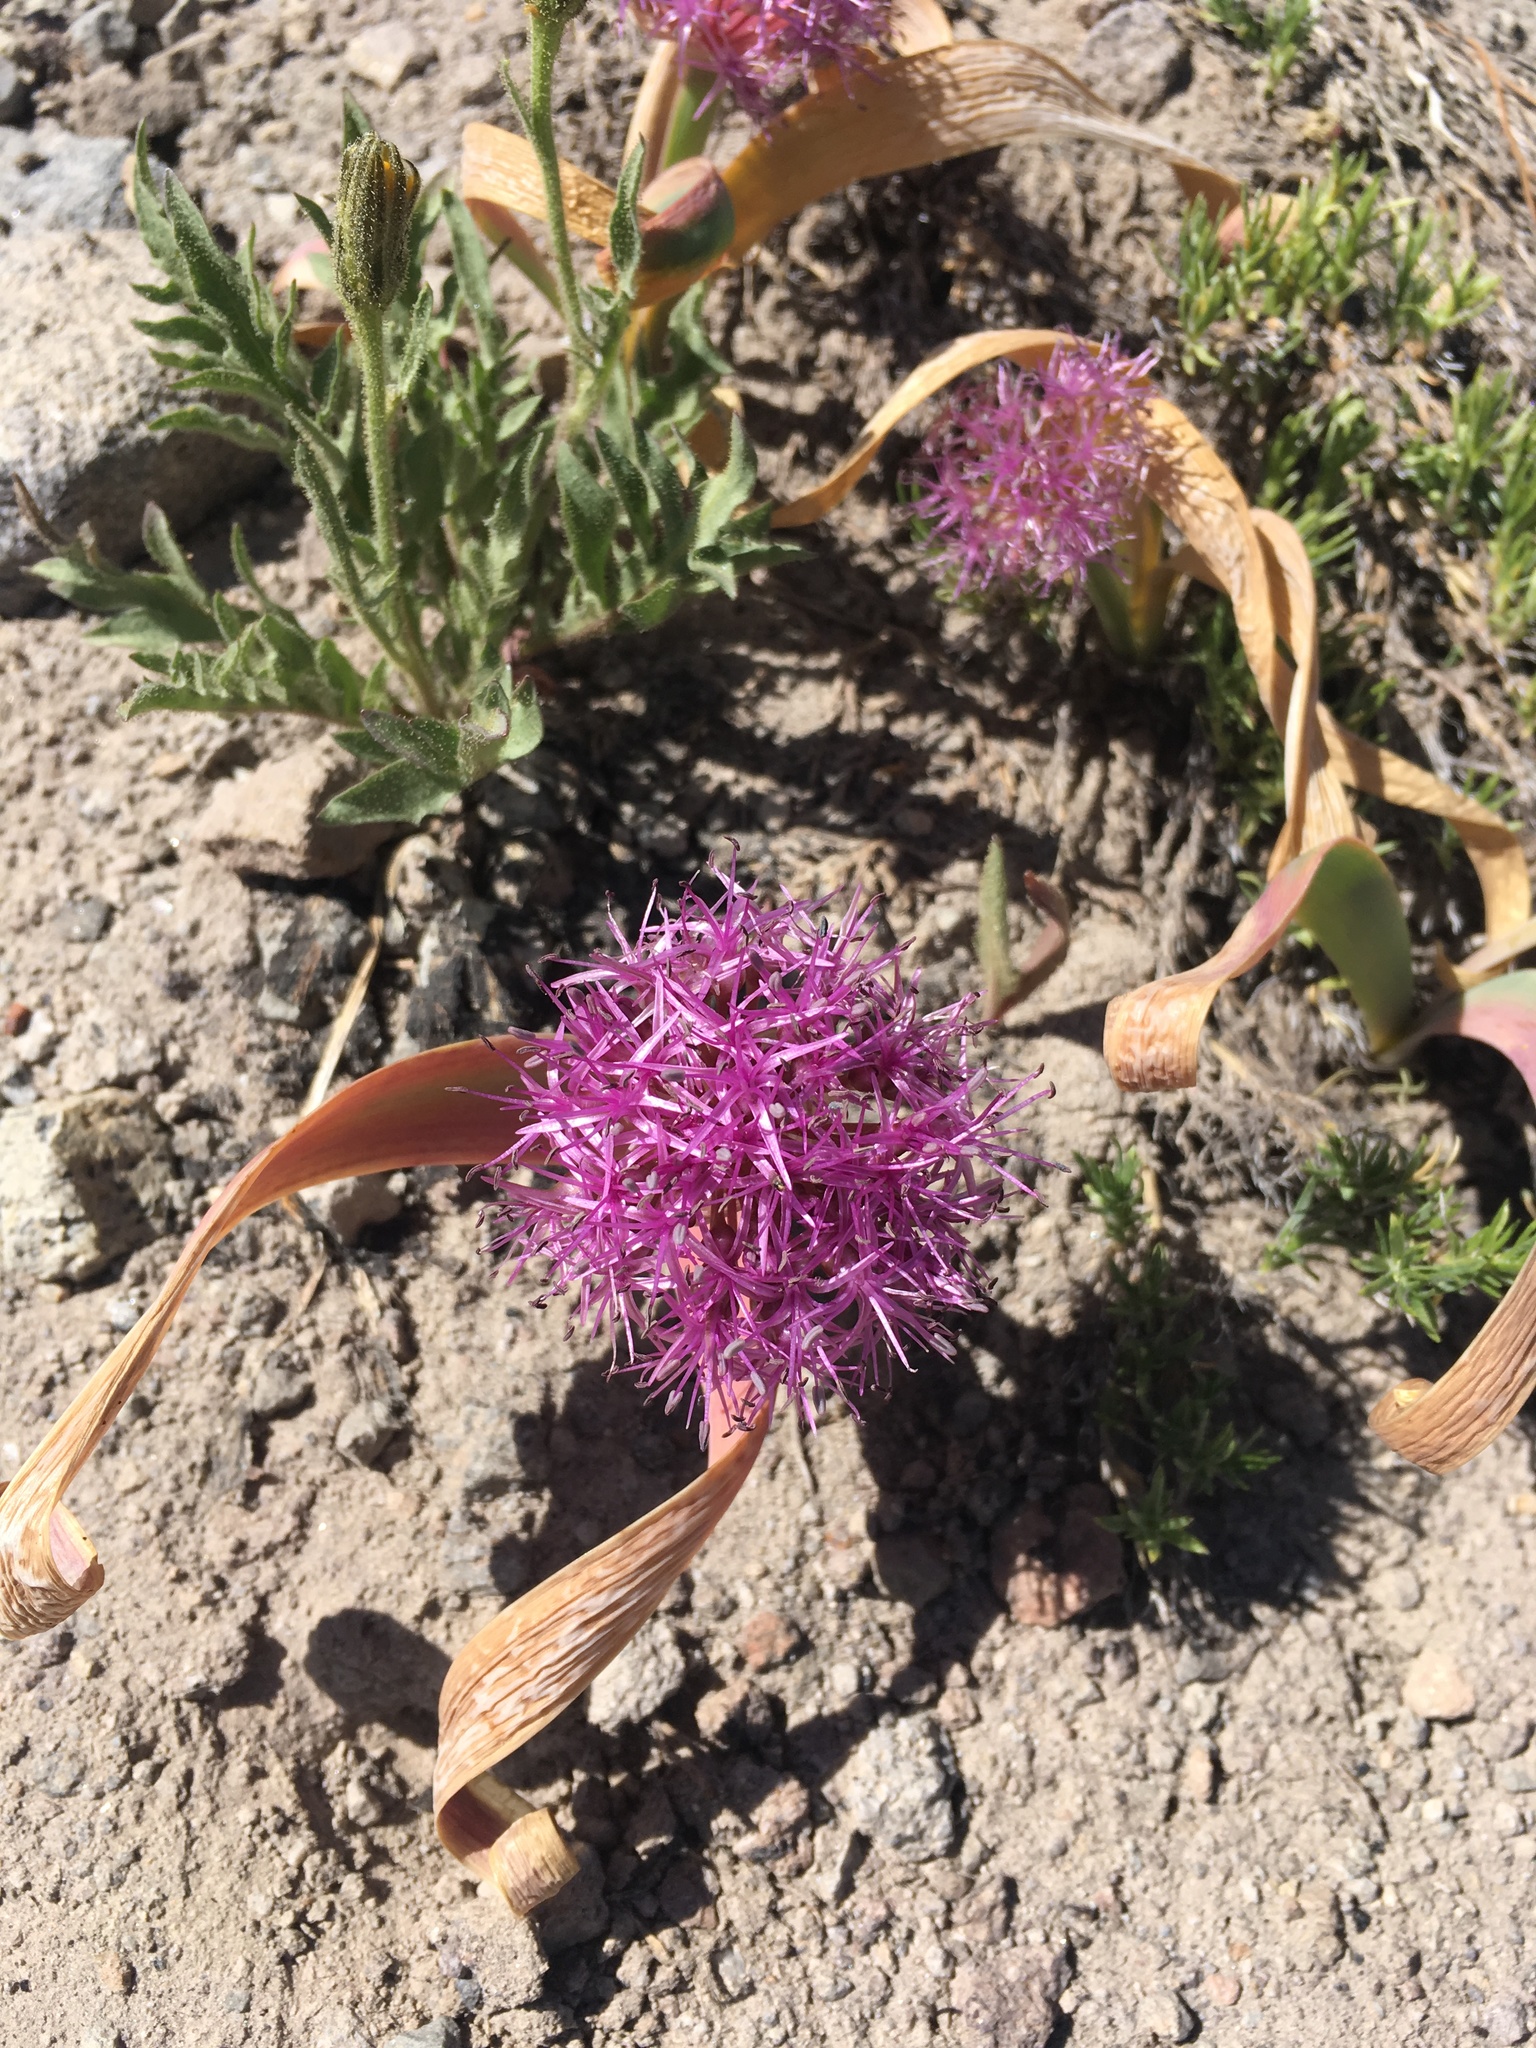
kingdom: Plantae
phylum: Tracheophyta
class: Liliopsida
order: Asparagales
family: Amaryllidaceae
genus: Allium
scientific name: Allium platycaule
